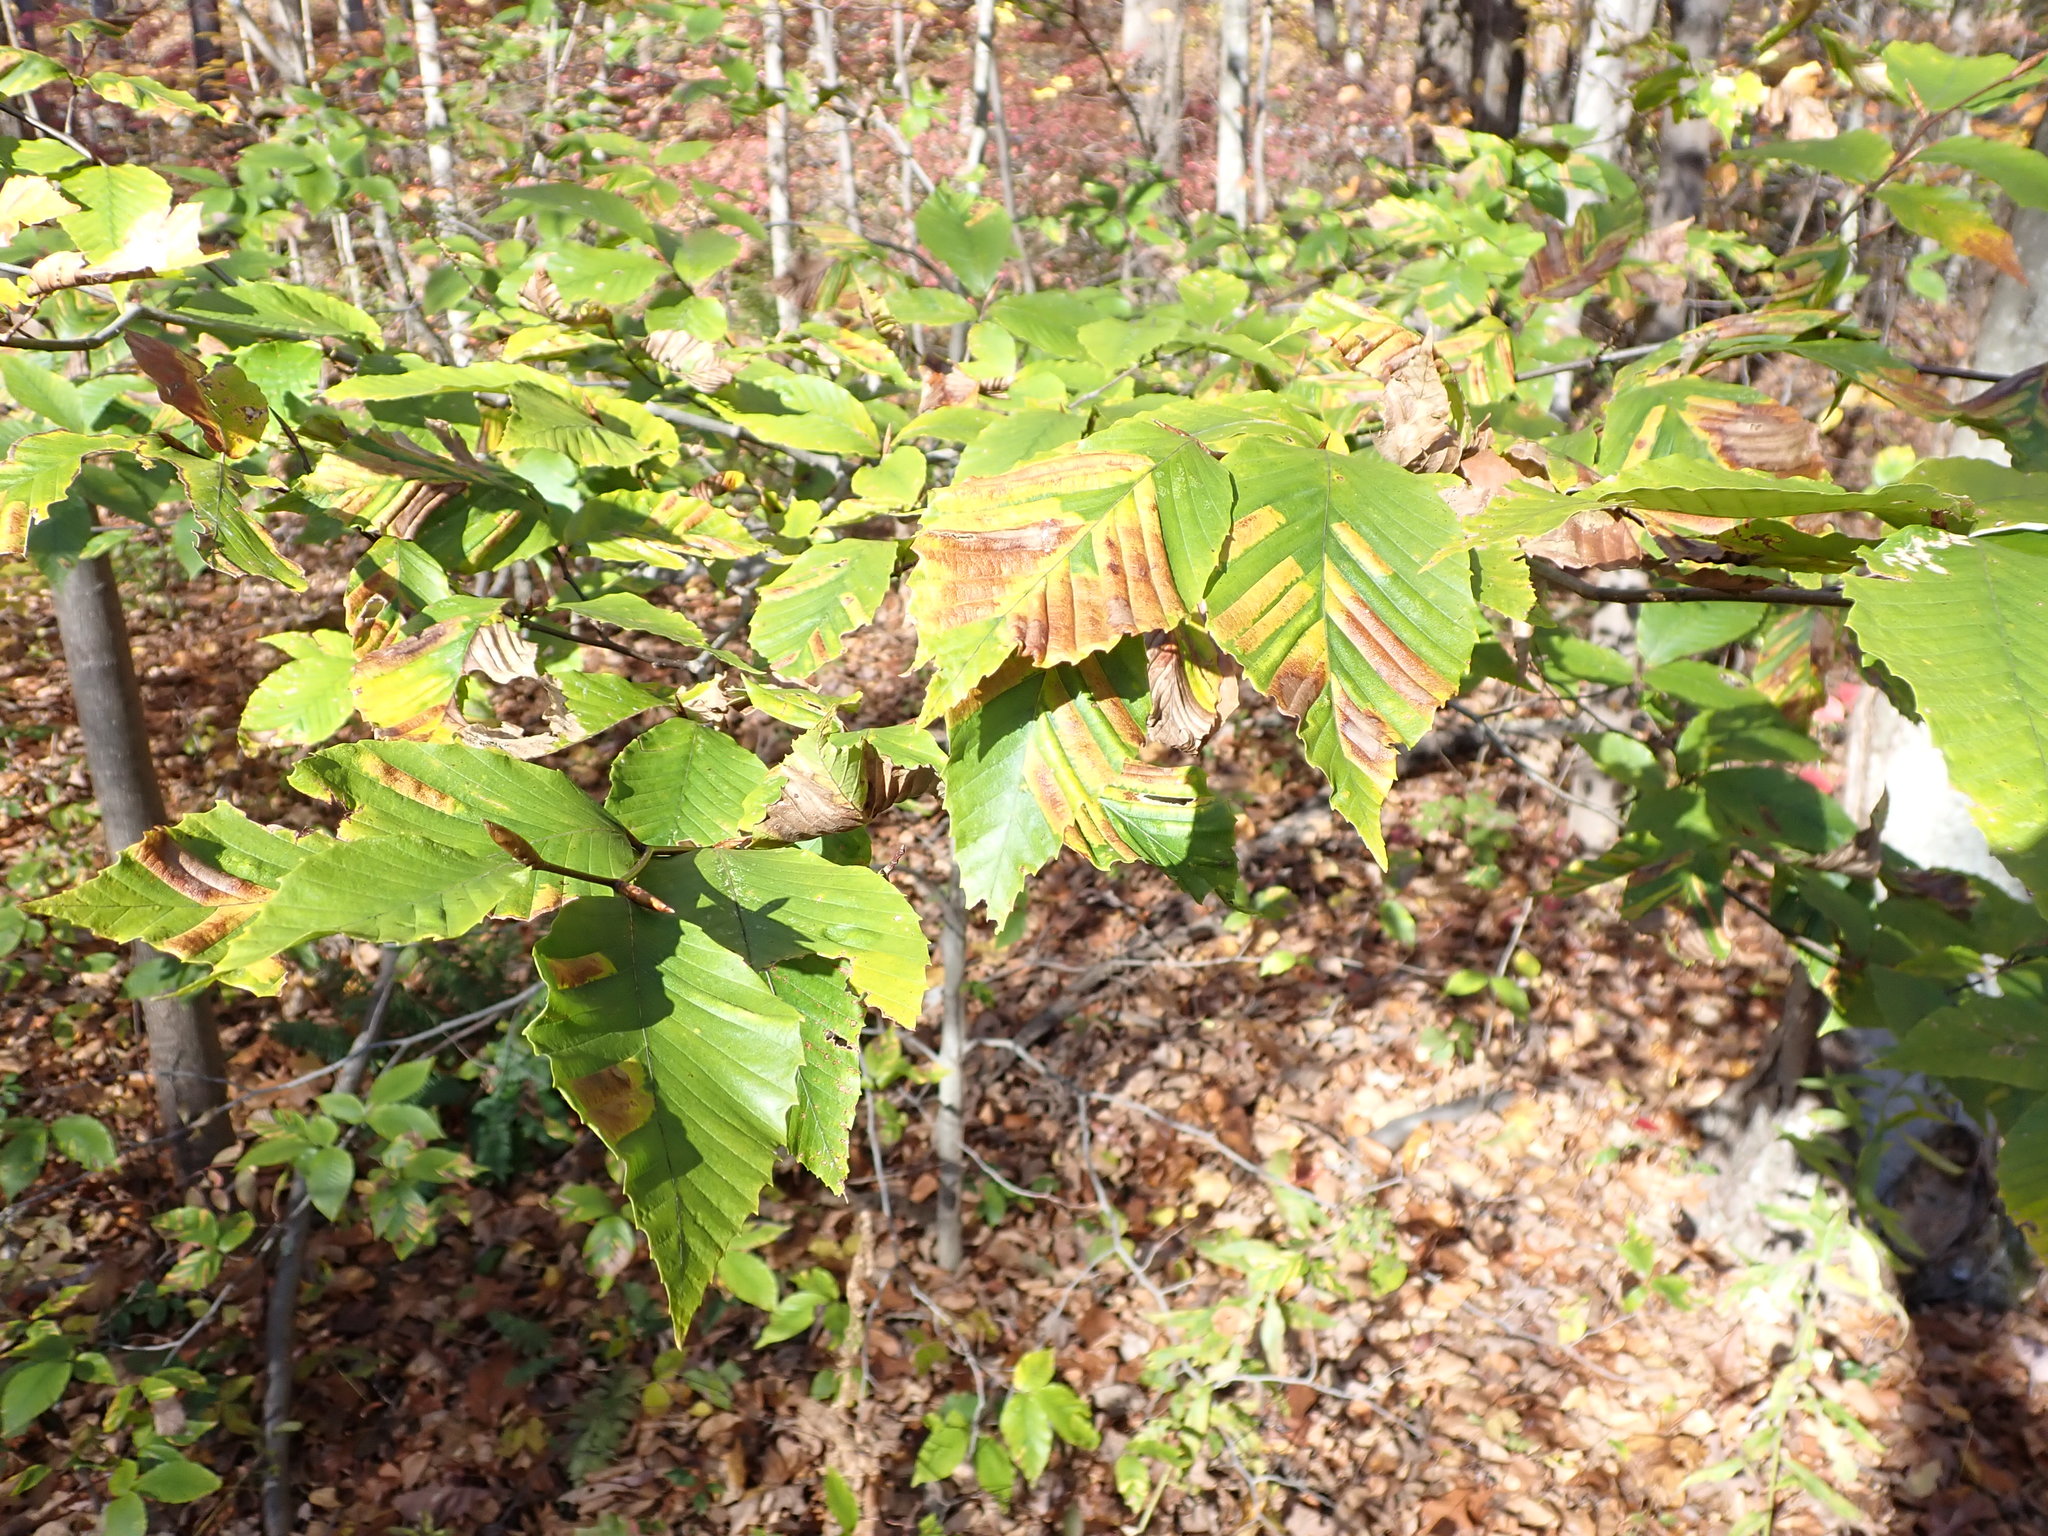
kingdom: Animalia
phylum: Nematoda
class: Chromadorea
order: Rhabditida
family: Anguinidae
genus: Litylenchus
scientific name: Litylenchus crenatae
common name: Beech leaf disease
